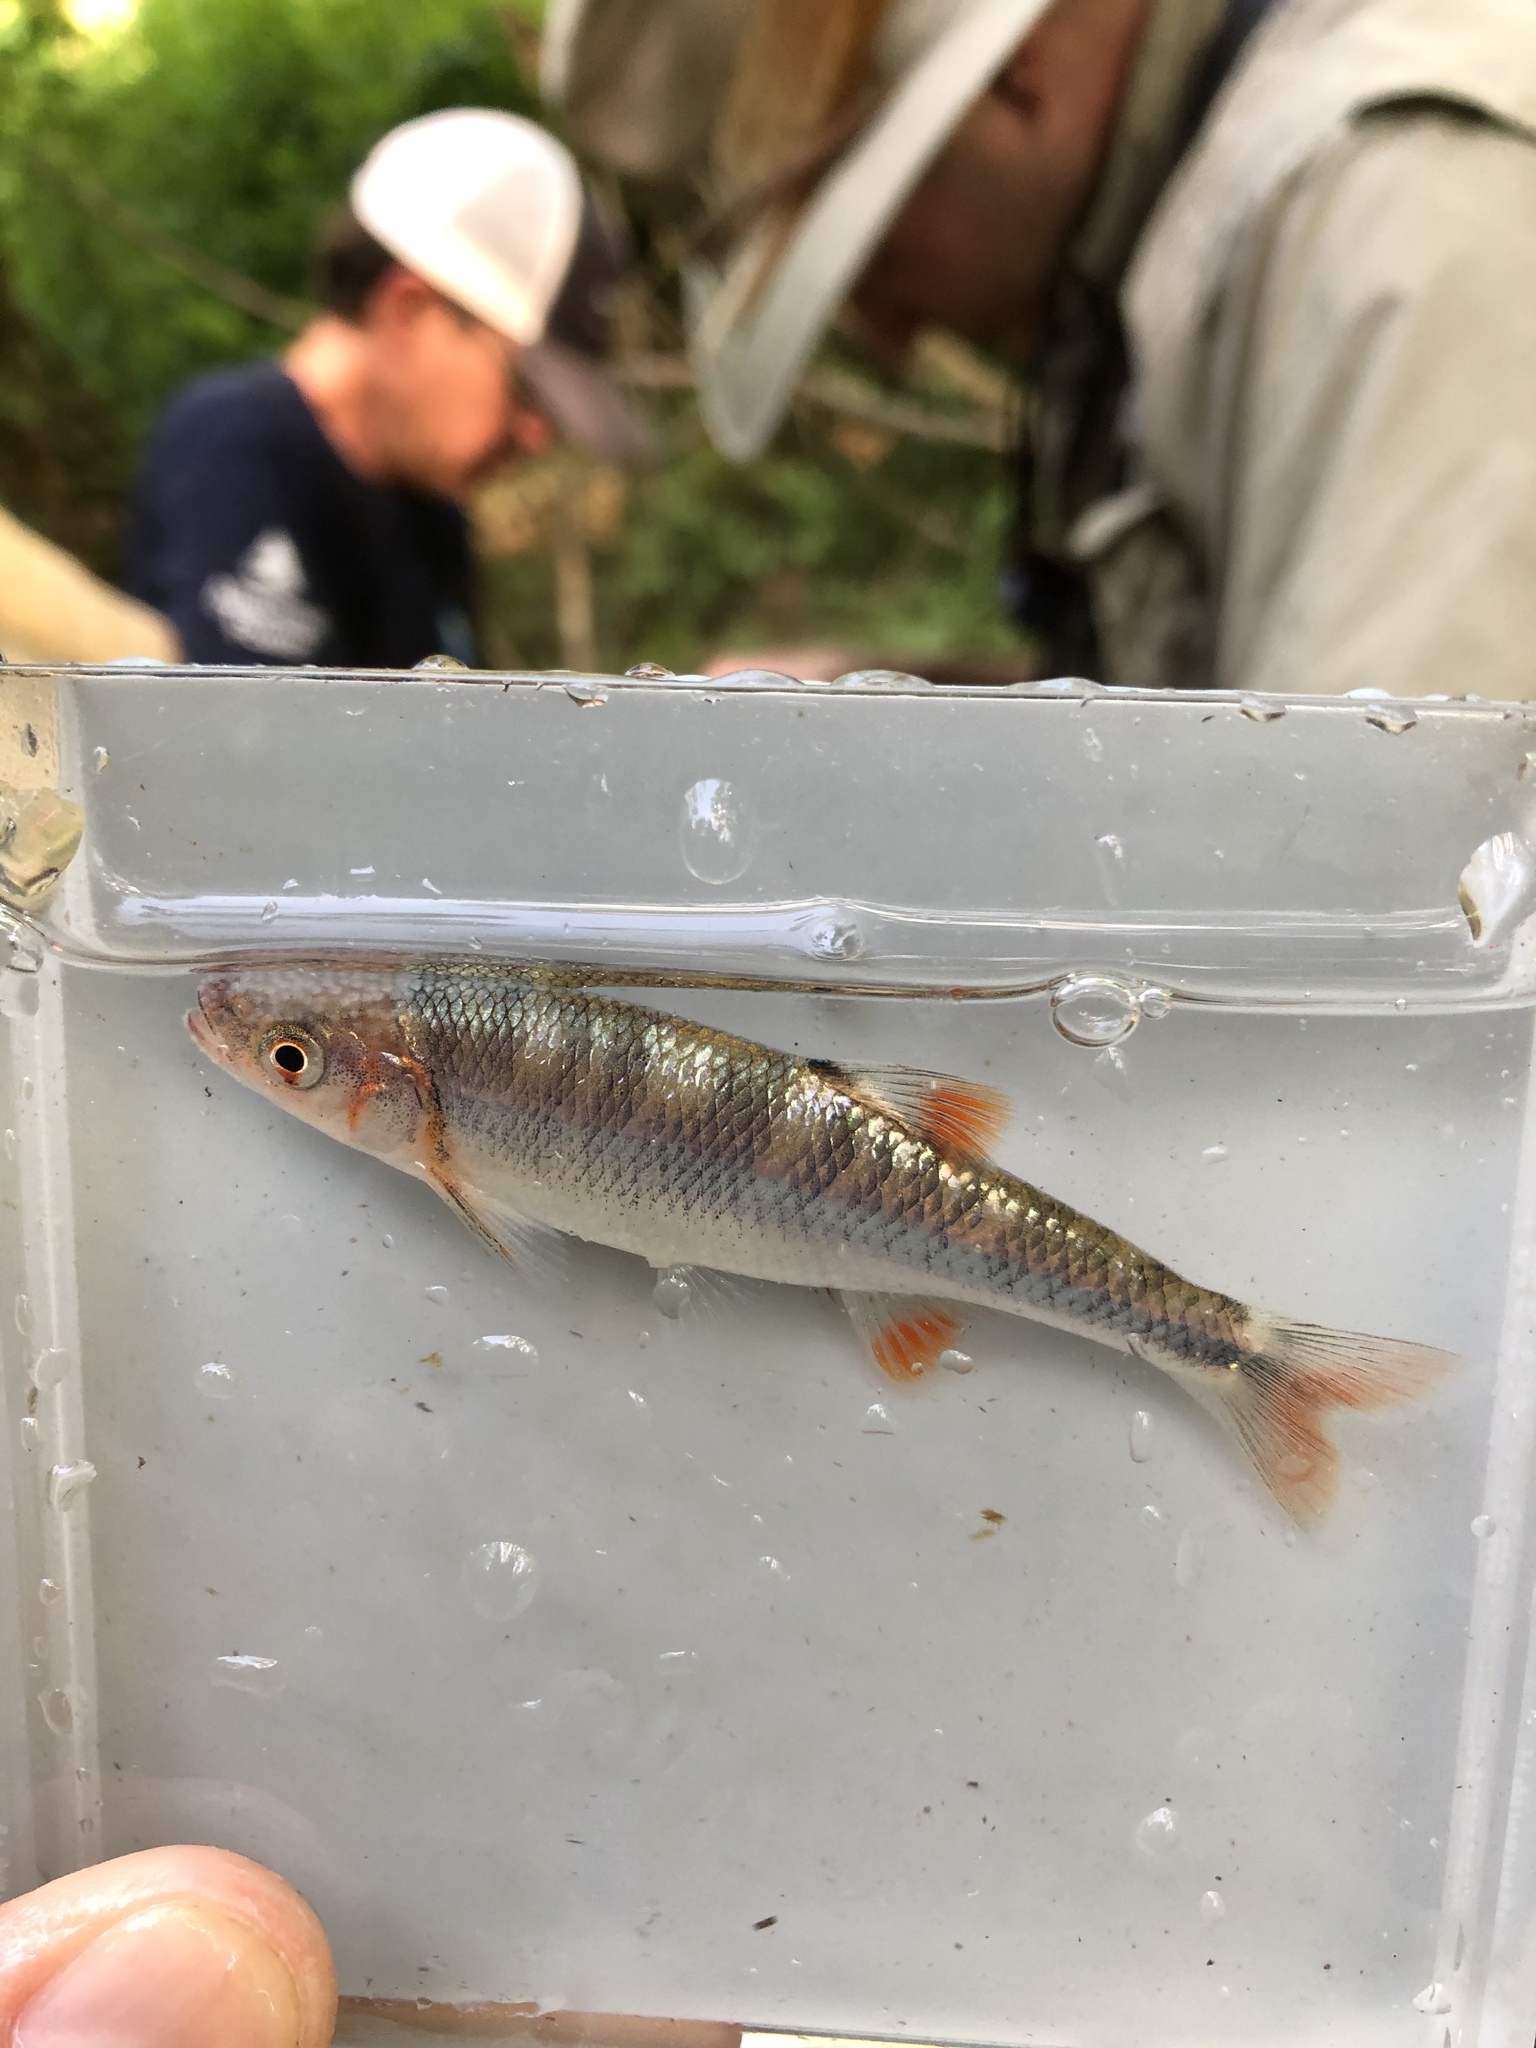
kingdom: Animalia
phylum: Chordata
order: Cypriniformes
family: Cyprinidae
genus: Lythrurus
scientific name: Lythrurus fasciolaris
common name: Scarlet shiner
